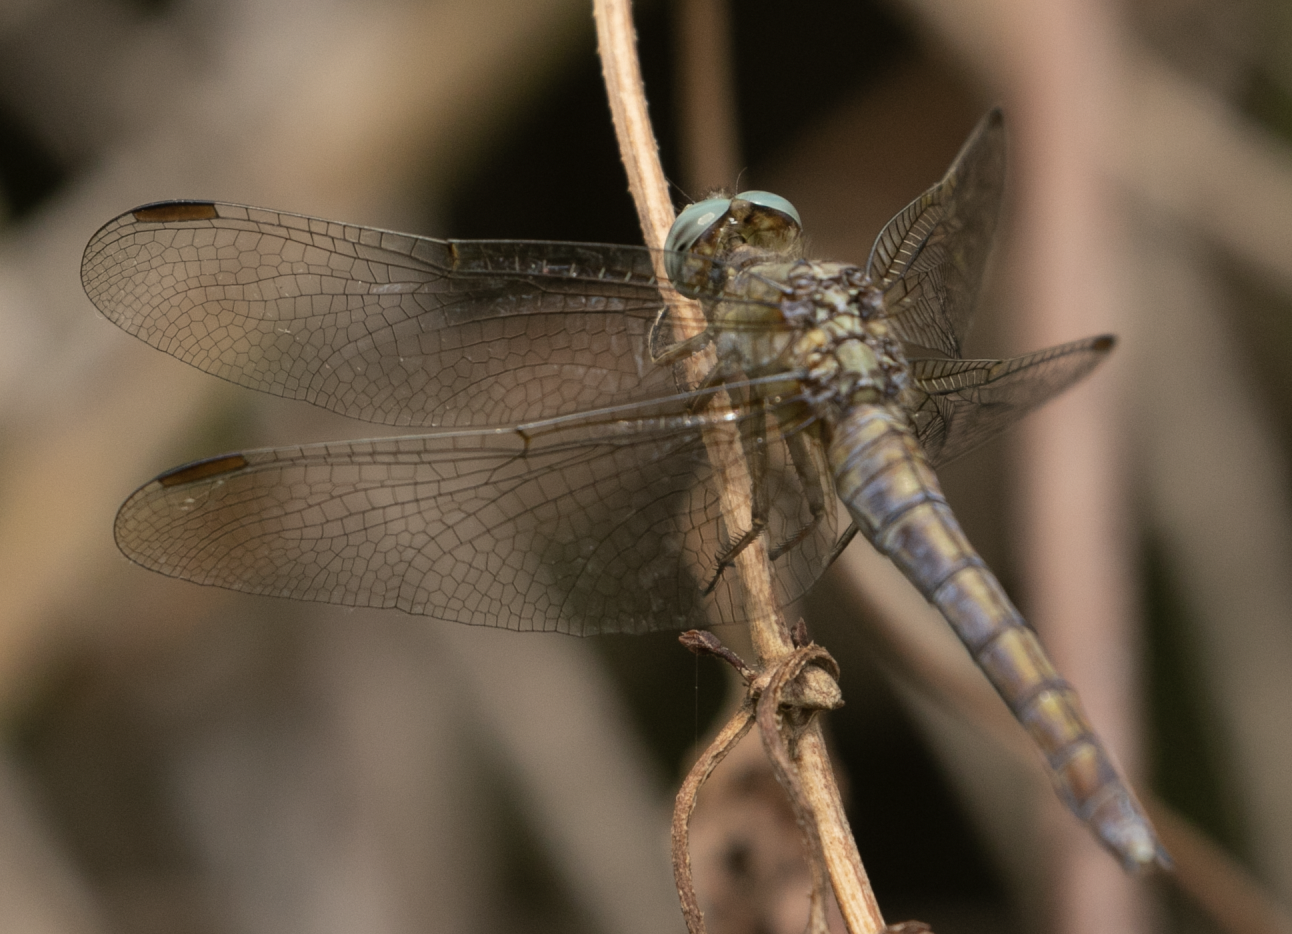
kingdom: Animalia
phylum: Arthropoda
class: Insecta
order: Odonata
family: Libellulidae
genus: Orthetrum
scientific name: Orthetrum coerulescens
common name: Keeled skimmer
